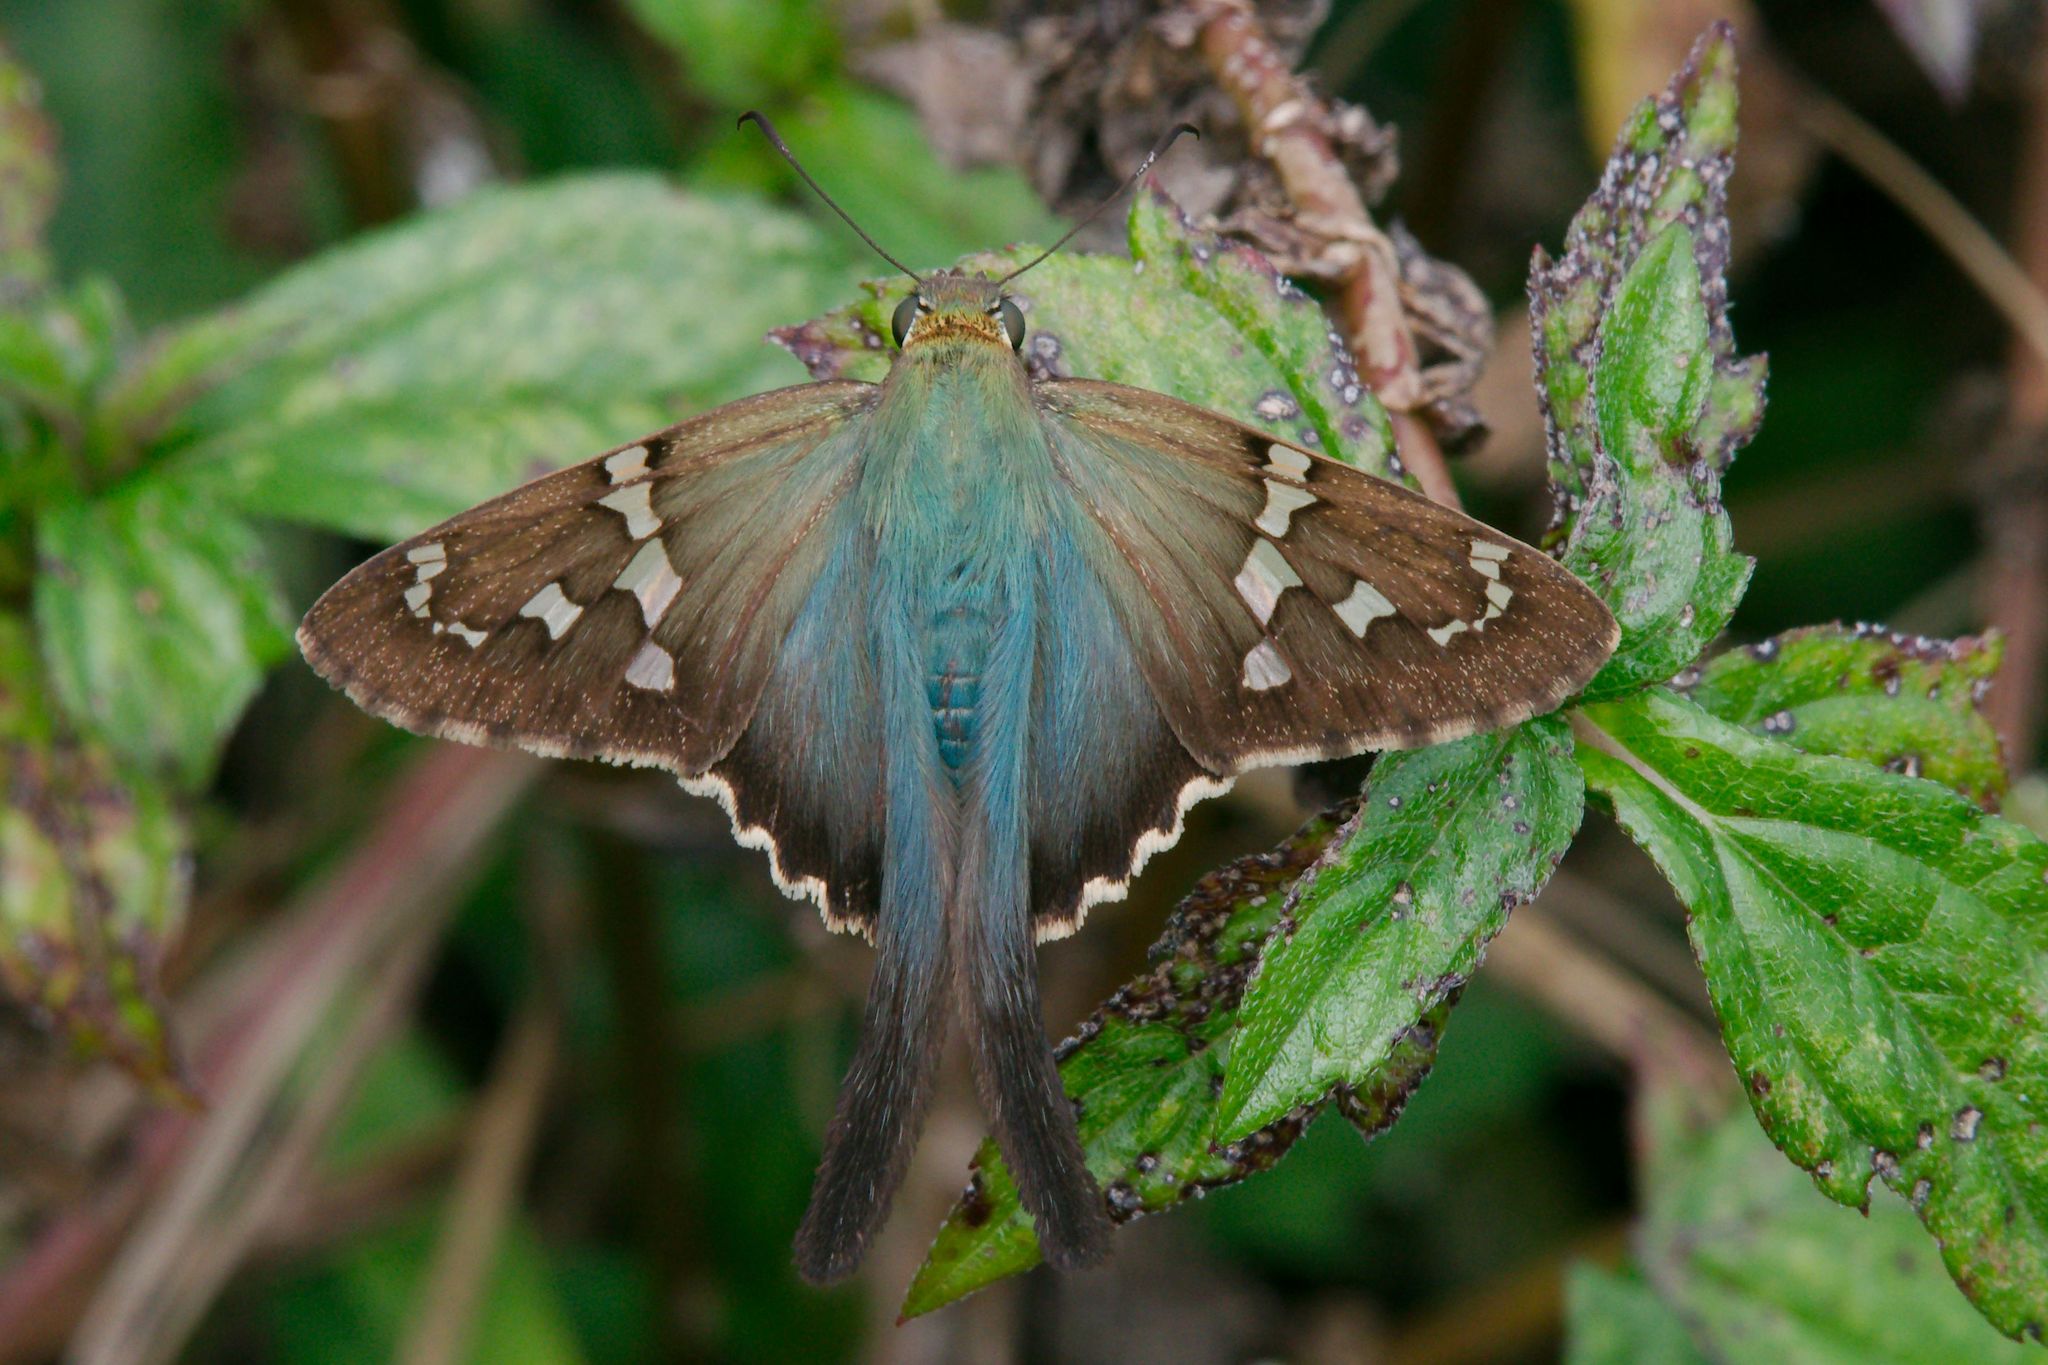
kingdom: Animalia
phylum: Arthropoda
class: Insecta
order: Lepidoptera
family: Hesperiidae
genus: Urbanus
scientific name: Urbanus proteus
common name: Long-tailed skipper
